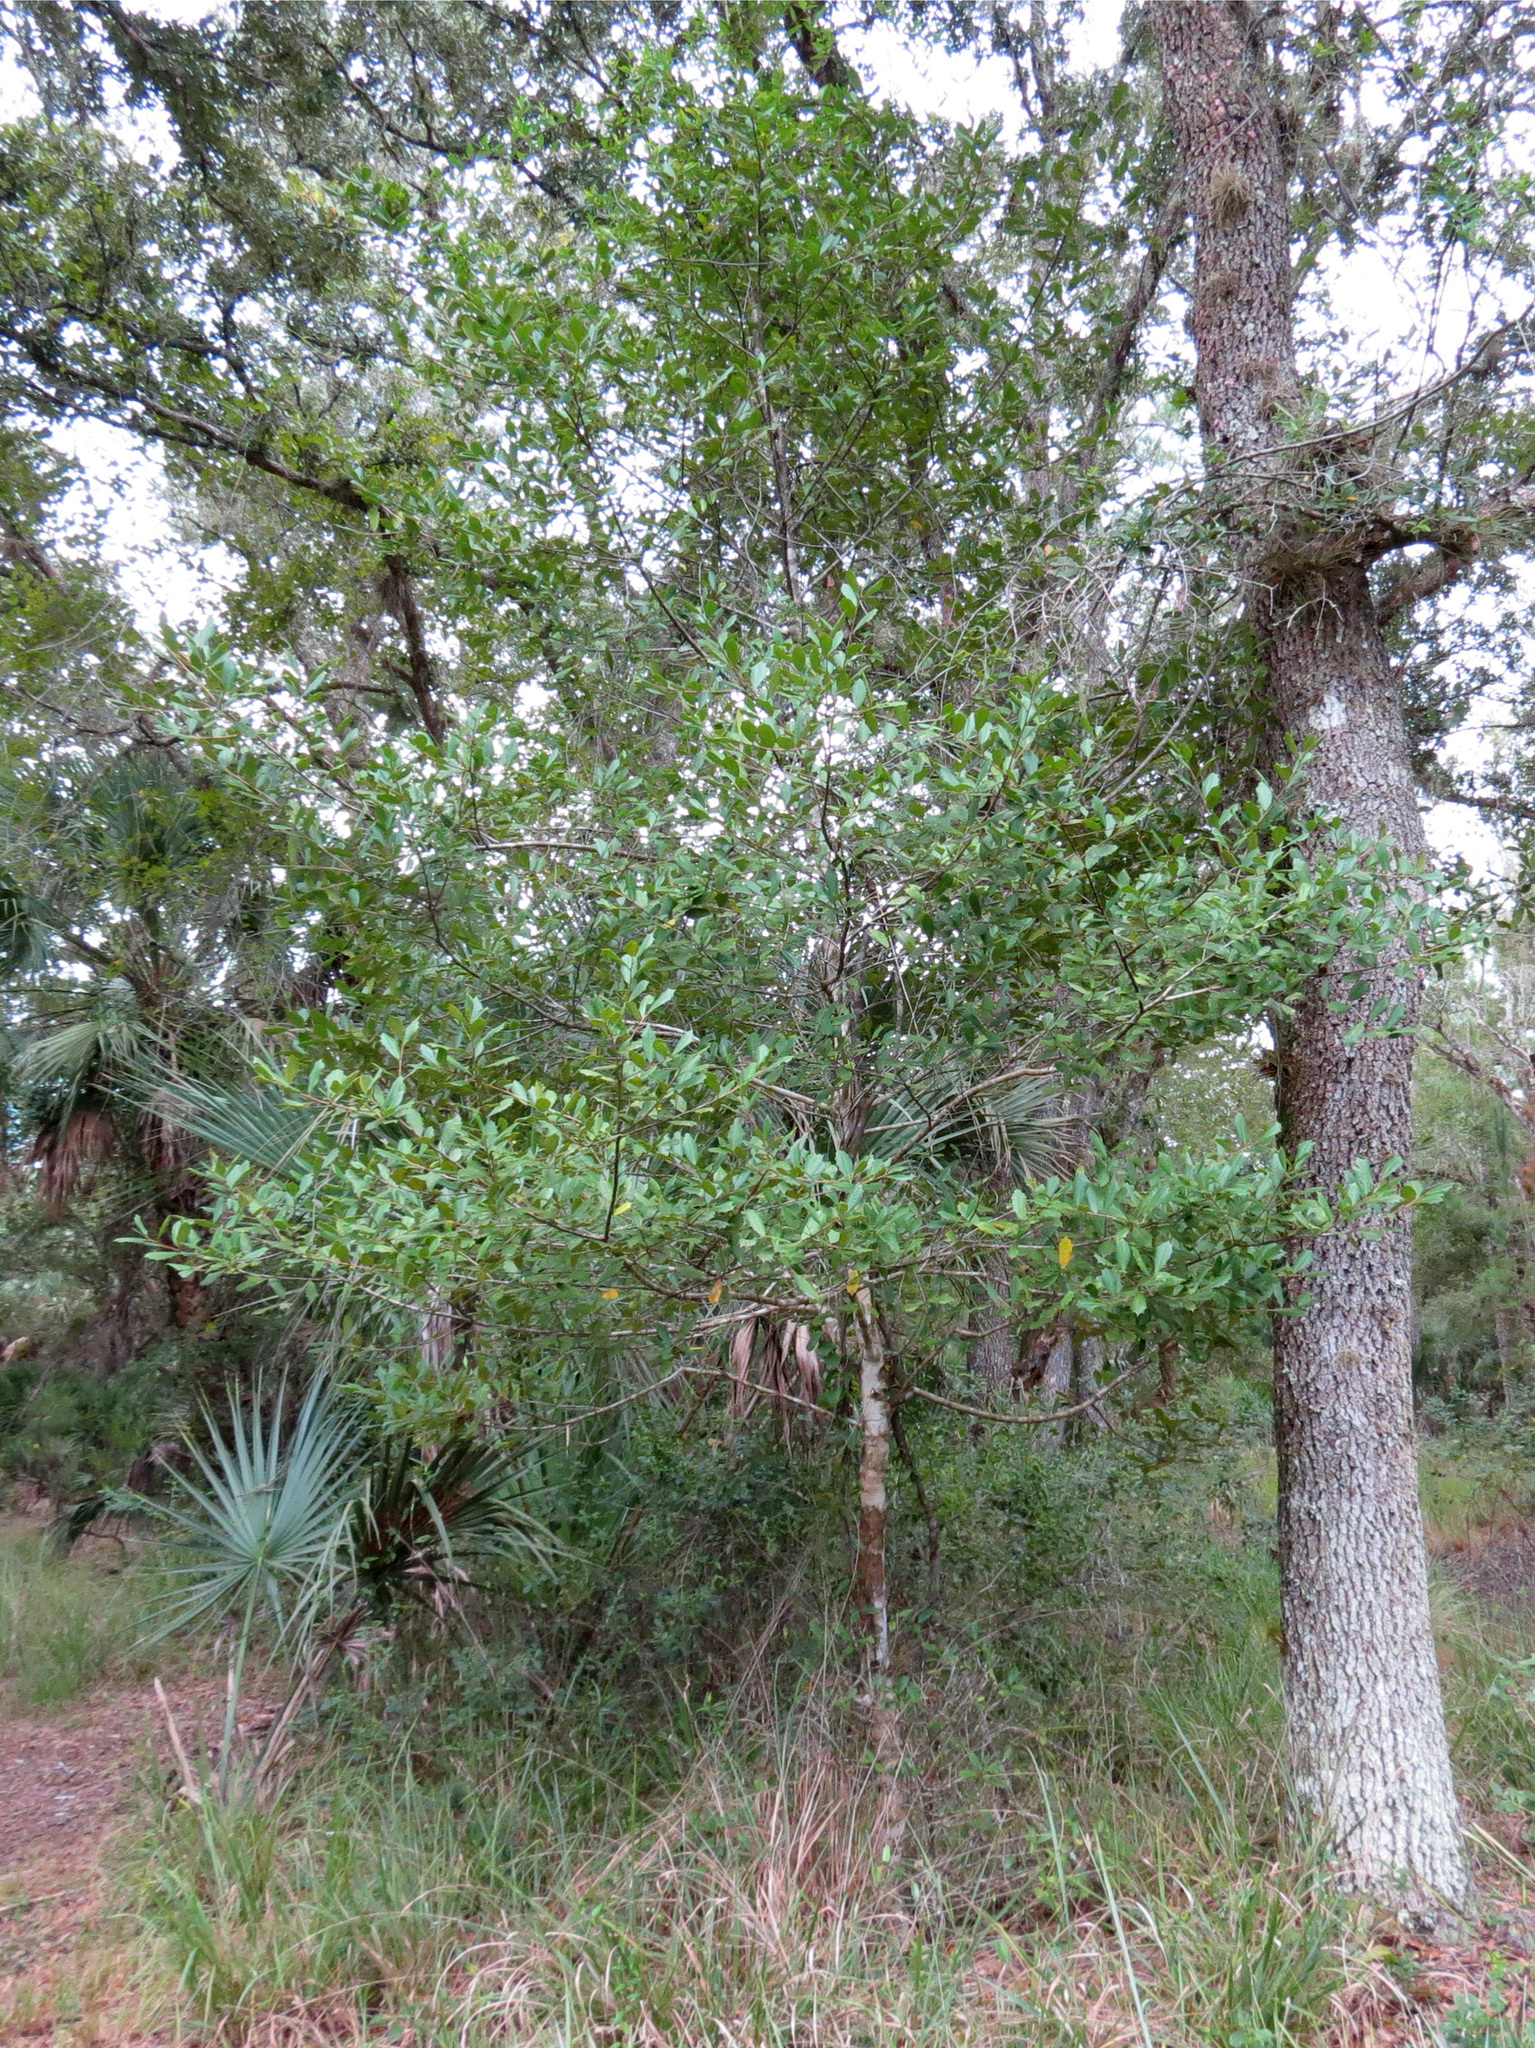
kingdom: Plantae
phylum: Tracheophyta
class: Magnoliopsida
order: Aquifoliales
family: Aquifoliaceae
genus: Ilex
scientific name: Ilex opaca
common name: American holly
